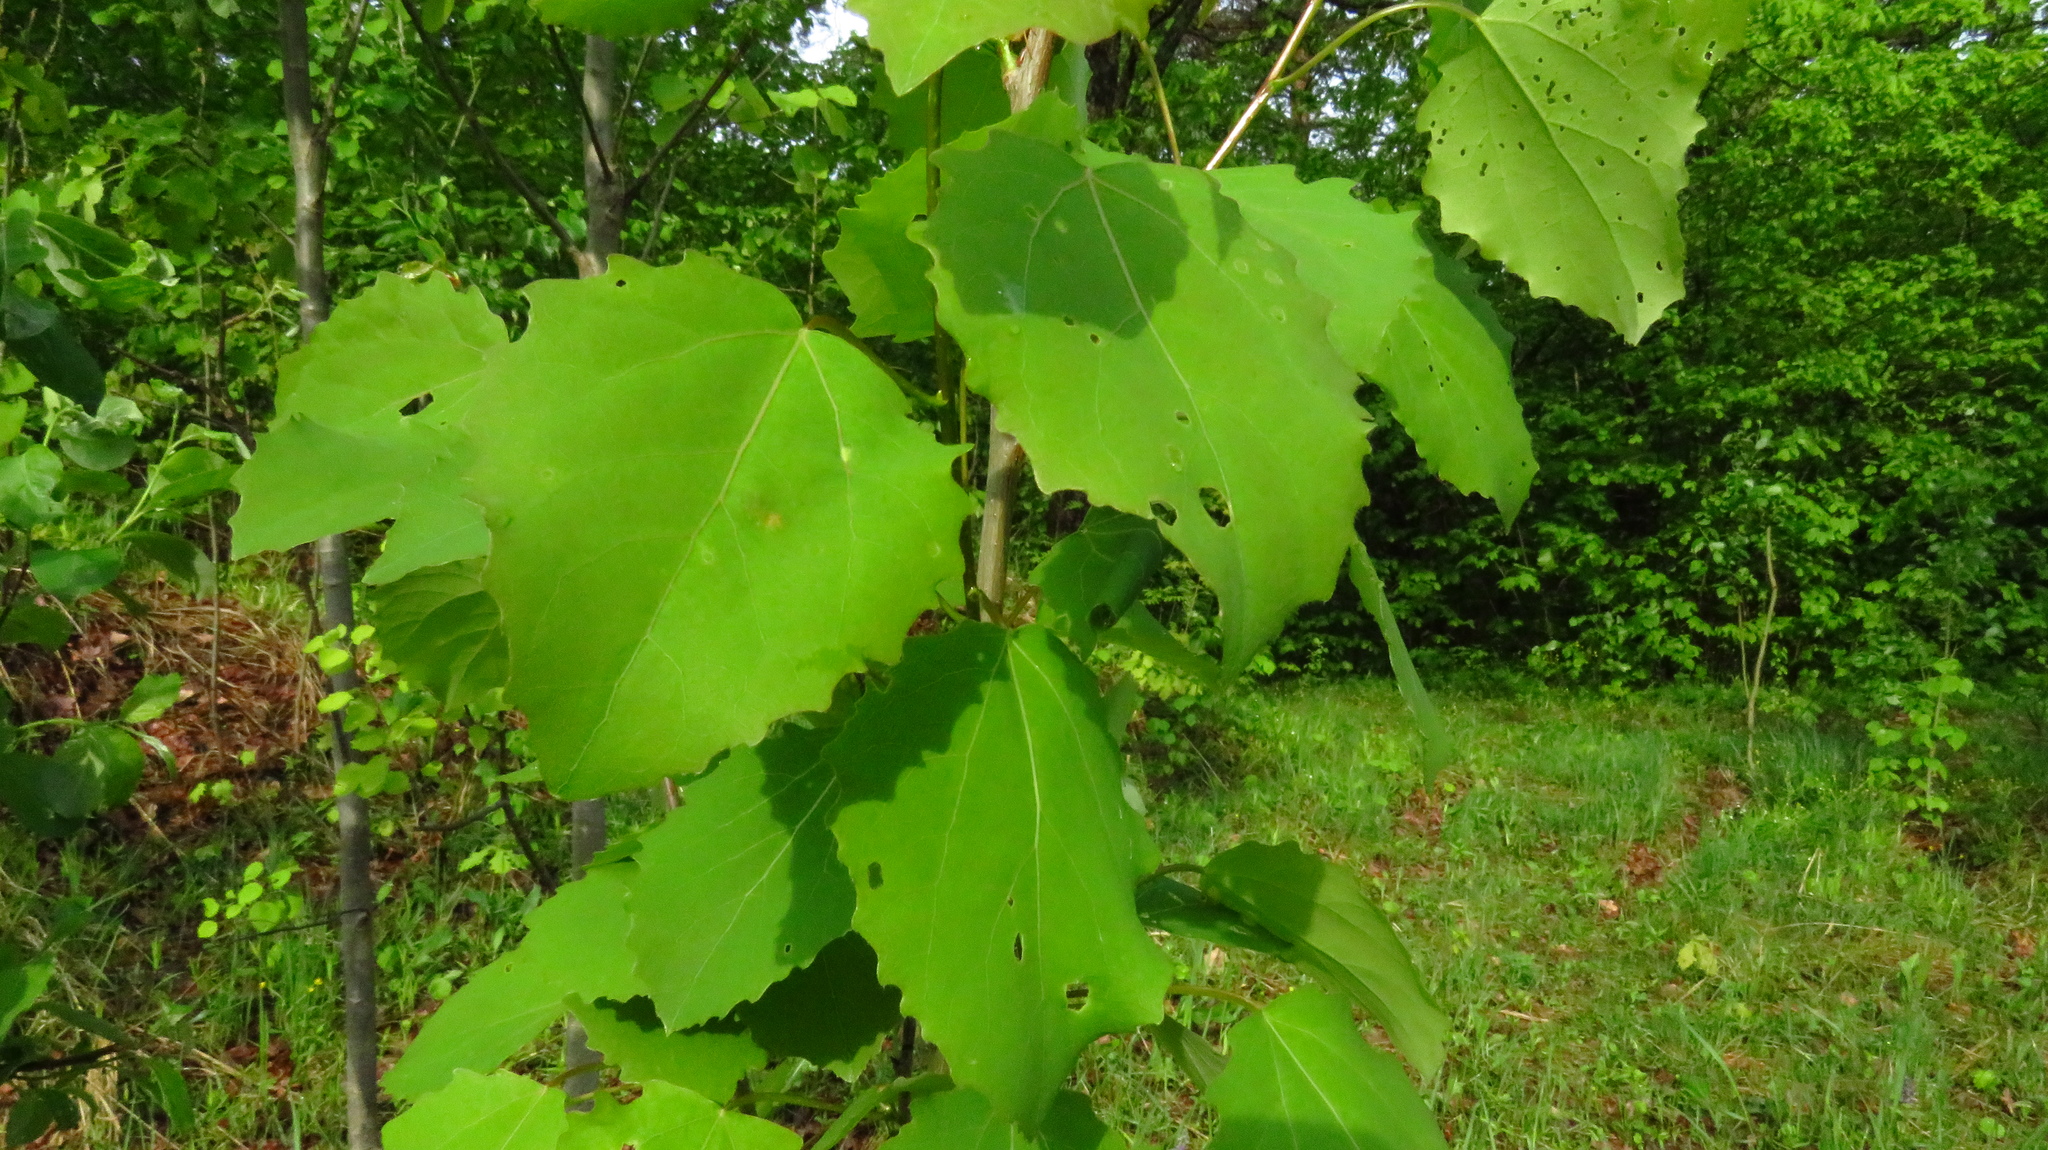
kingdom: Plantae
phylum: Tracheophyta
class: Magnoliopsida
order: Malpighiales
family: Salicaceae
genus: Populus
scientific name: Populus tremula
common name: European aspen
